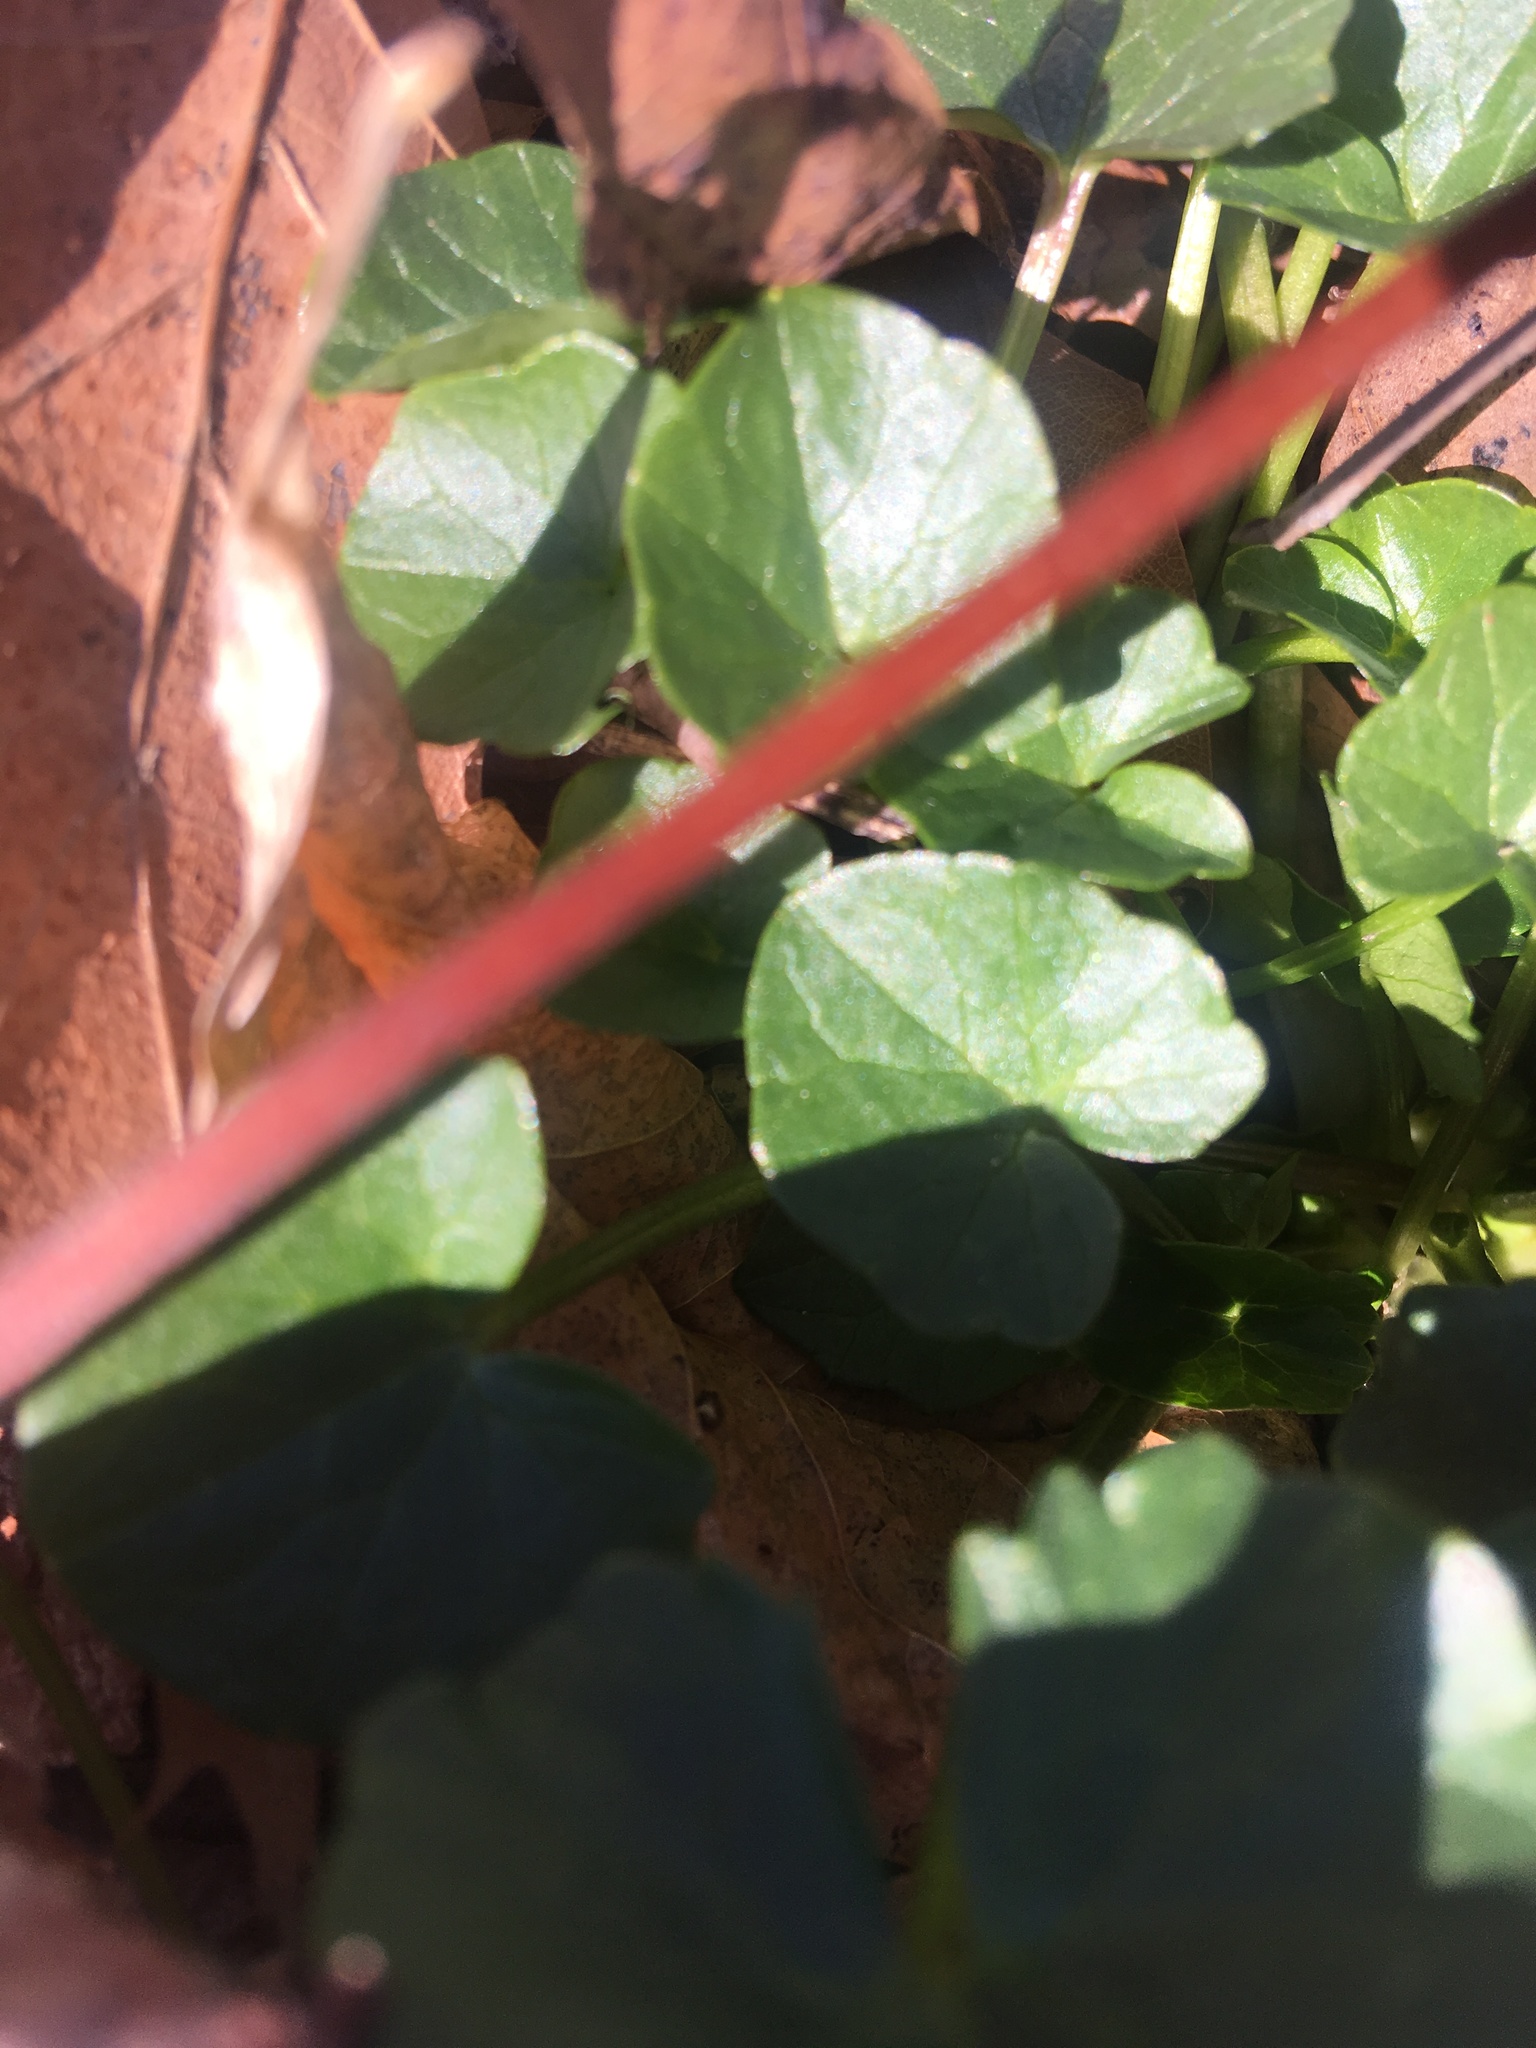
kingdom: Plantae
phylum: Tracheophyta
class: Magnoliopsida
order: Ranunculales
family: Ranunculaceae
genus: Ficaria
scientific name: Ficaria verna
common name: Lesser celandine
